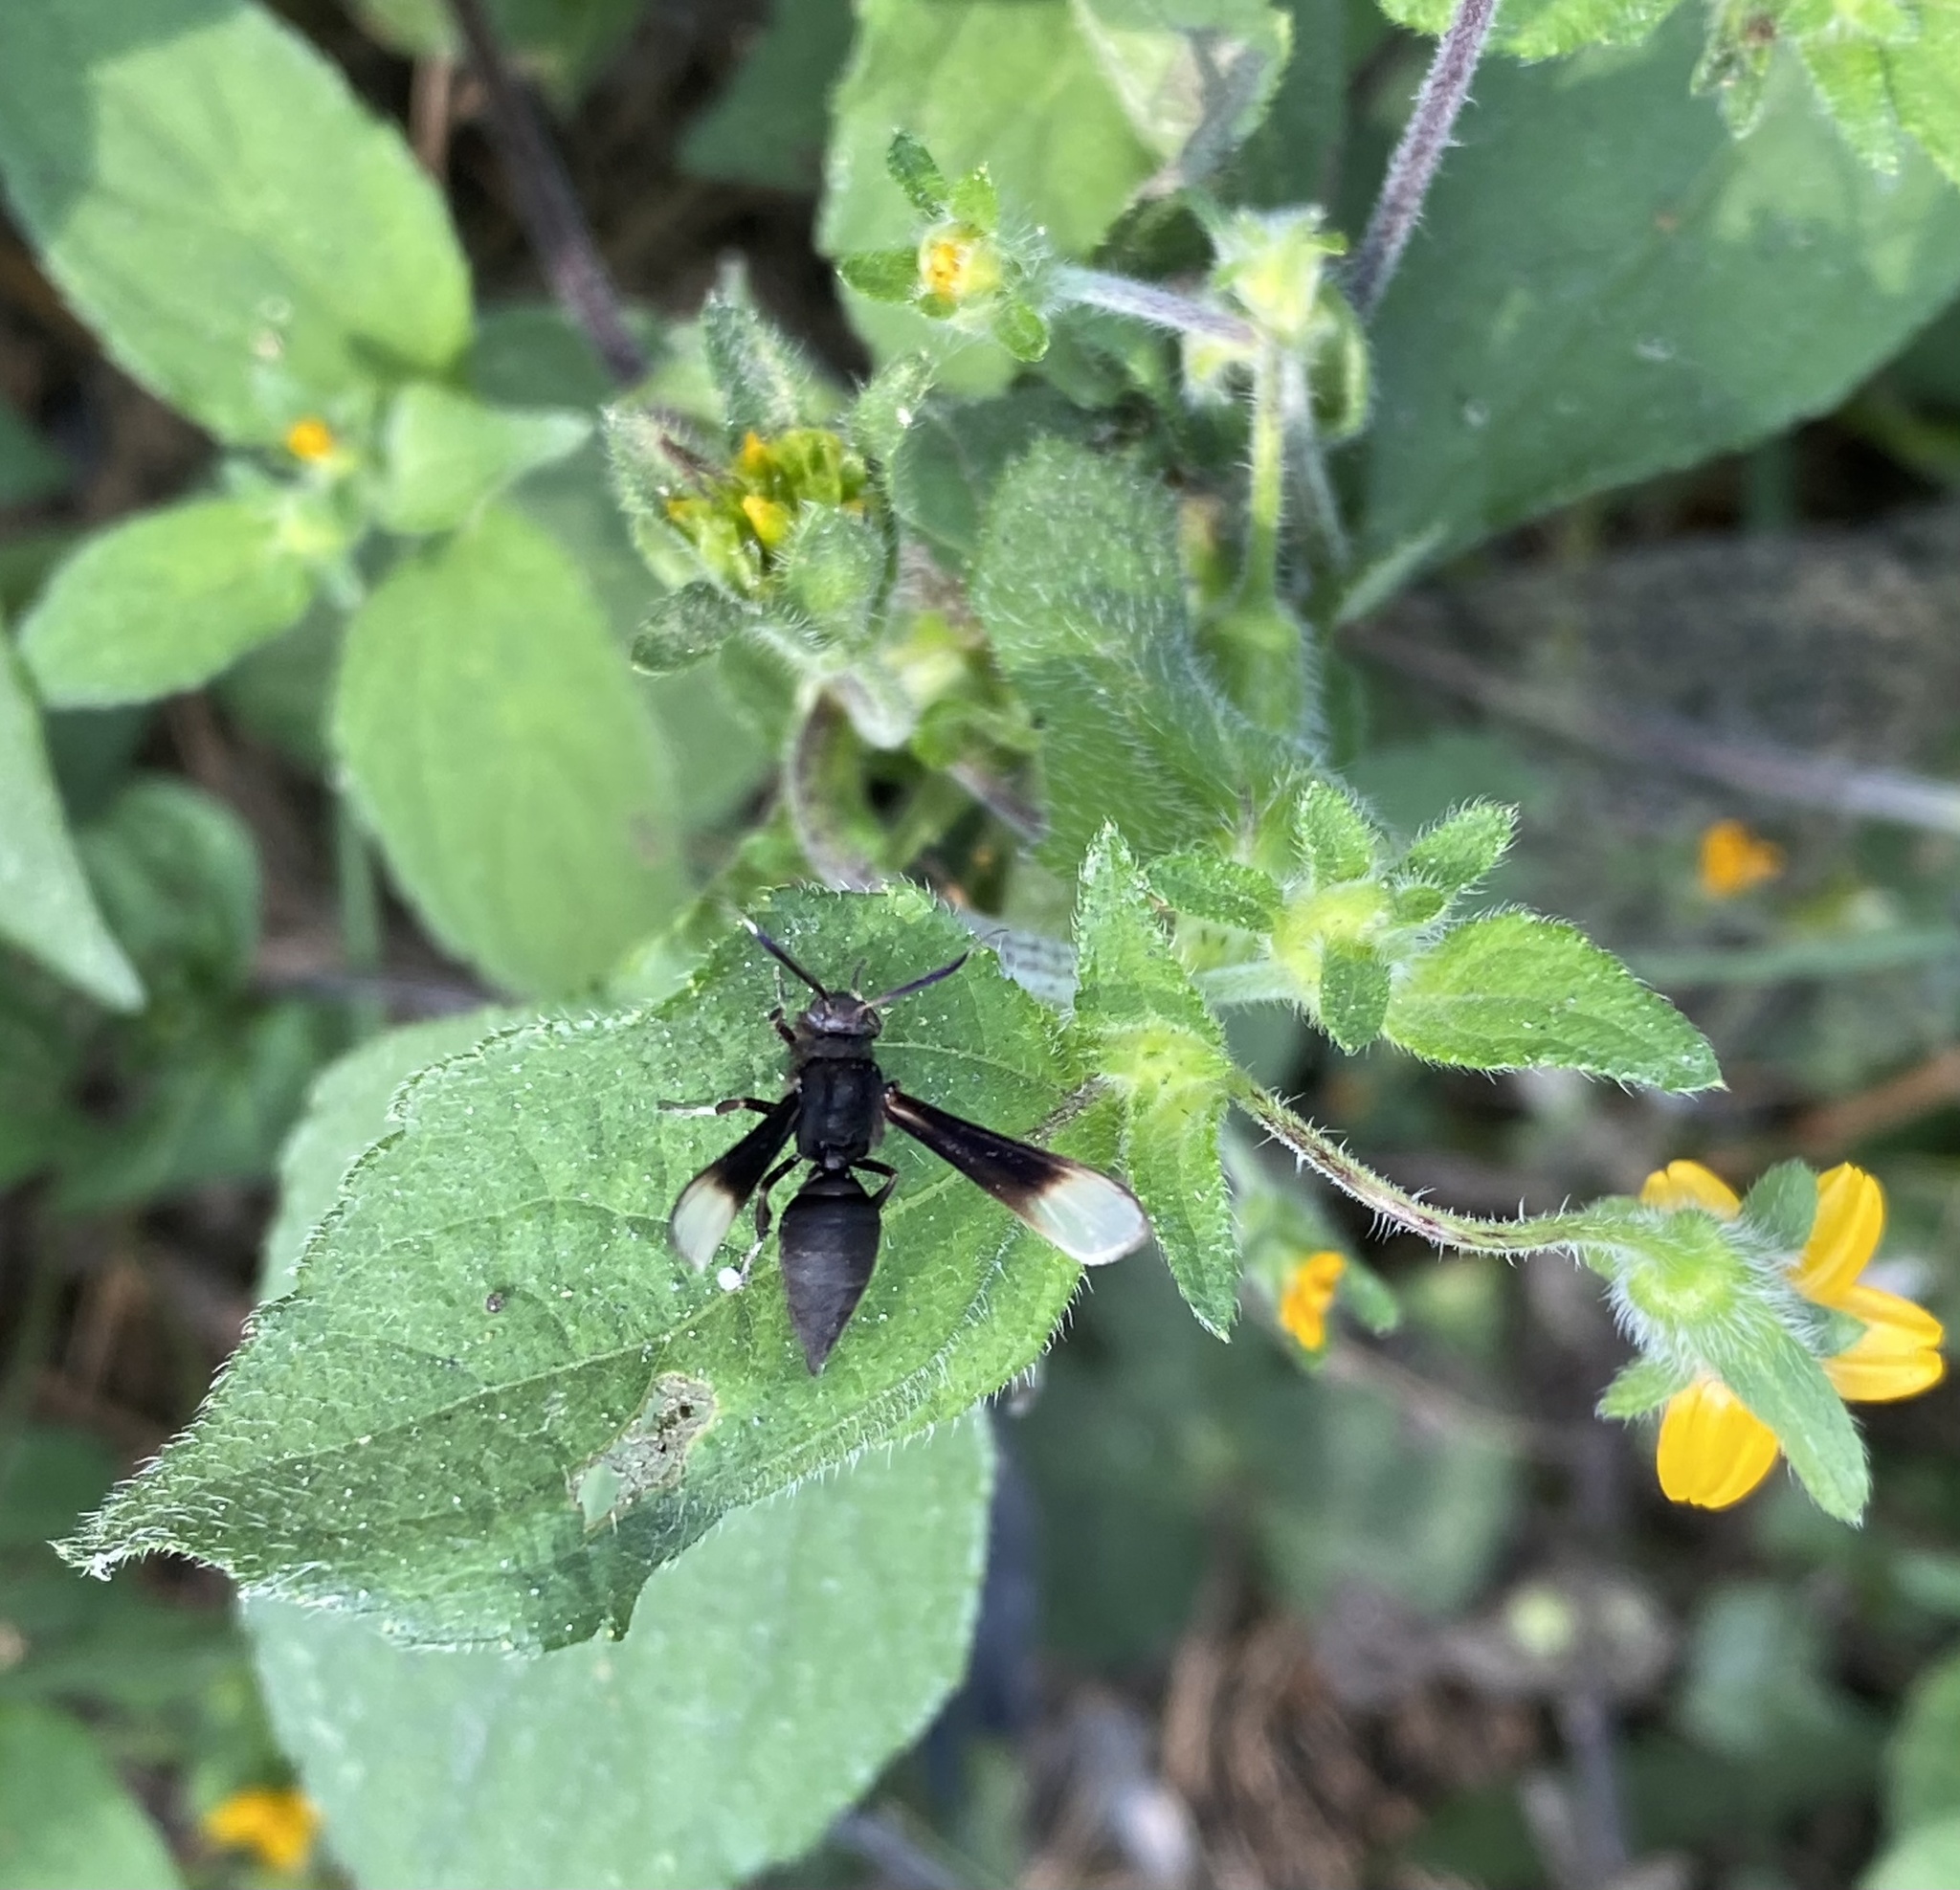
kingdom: Animalia
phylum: Arthropoda
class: Insecta
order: Lepidoptera
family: Erebidae
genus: Pseudosphex
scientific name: Pseudosphex strigosa
